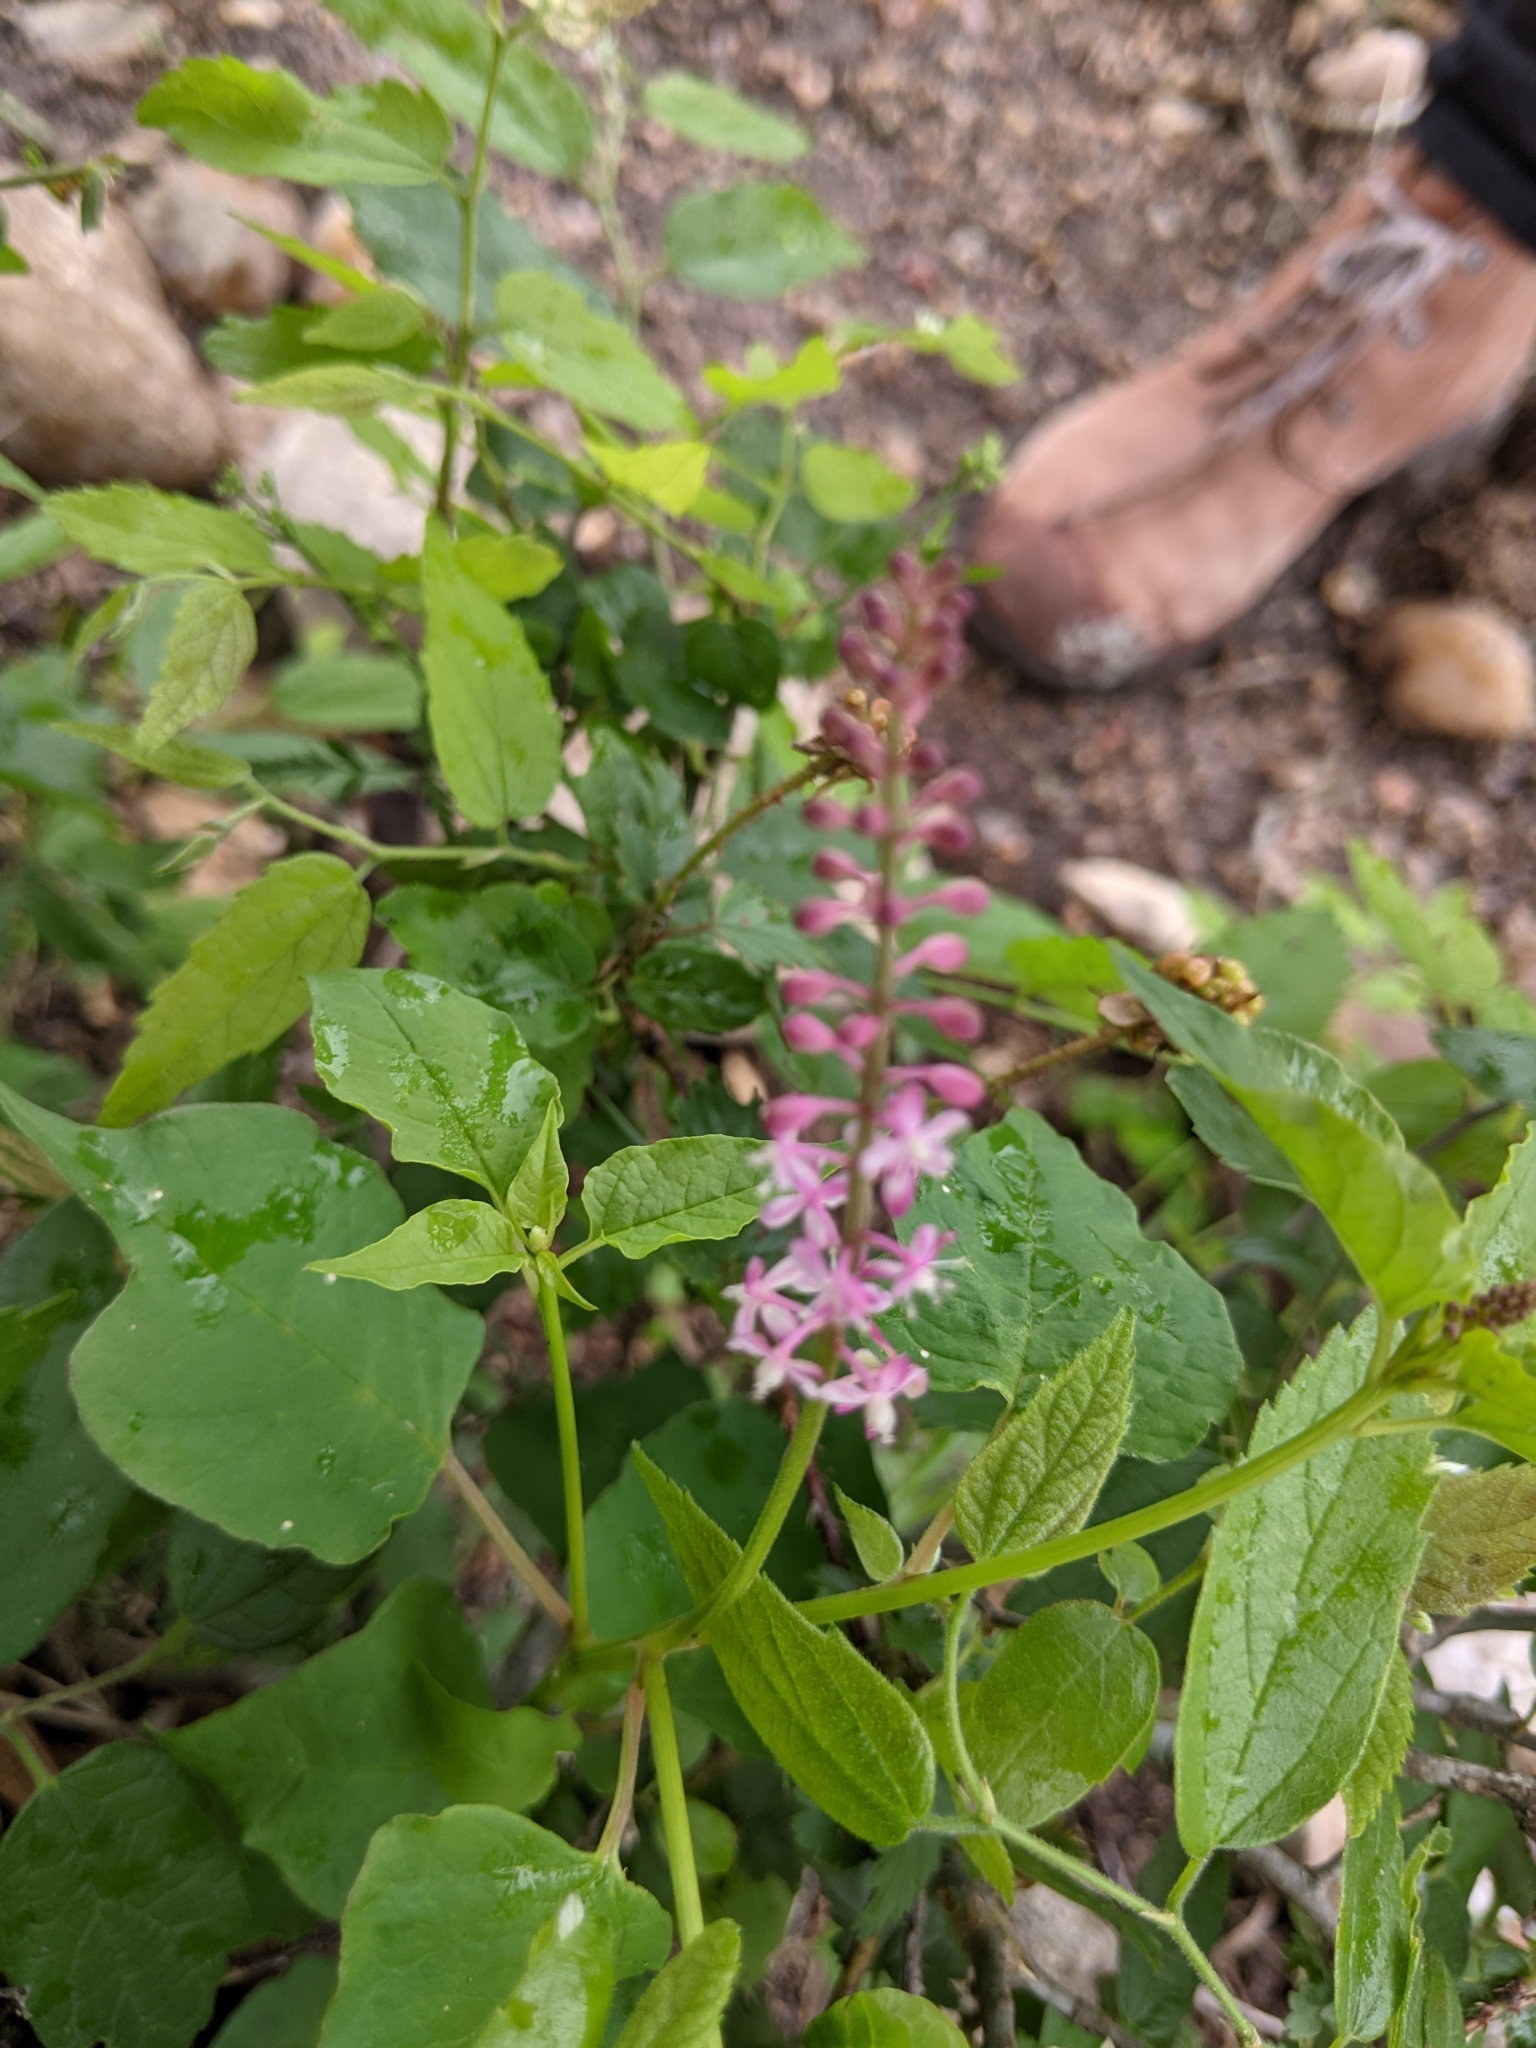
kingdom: Plantae
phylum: Tracheophyta
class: Magnoliopsida
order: Caryophyllales
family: Phytolaccaceae
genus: Rivina
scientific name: Rivina humilis
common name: Rougeplant
